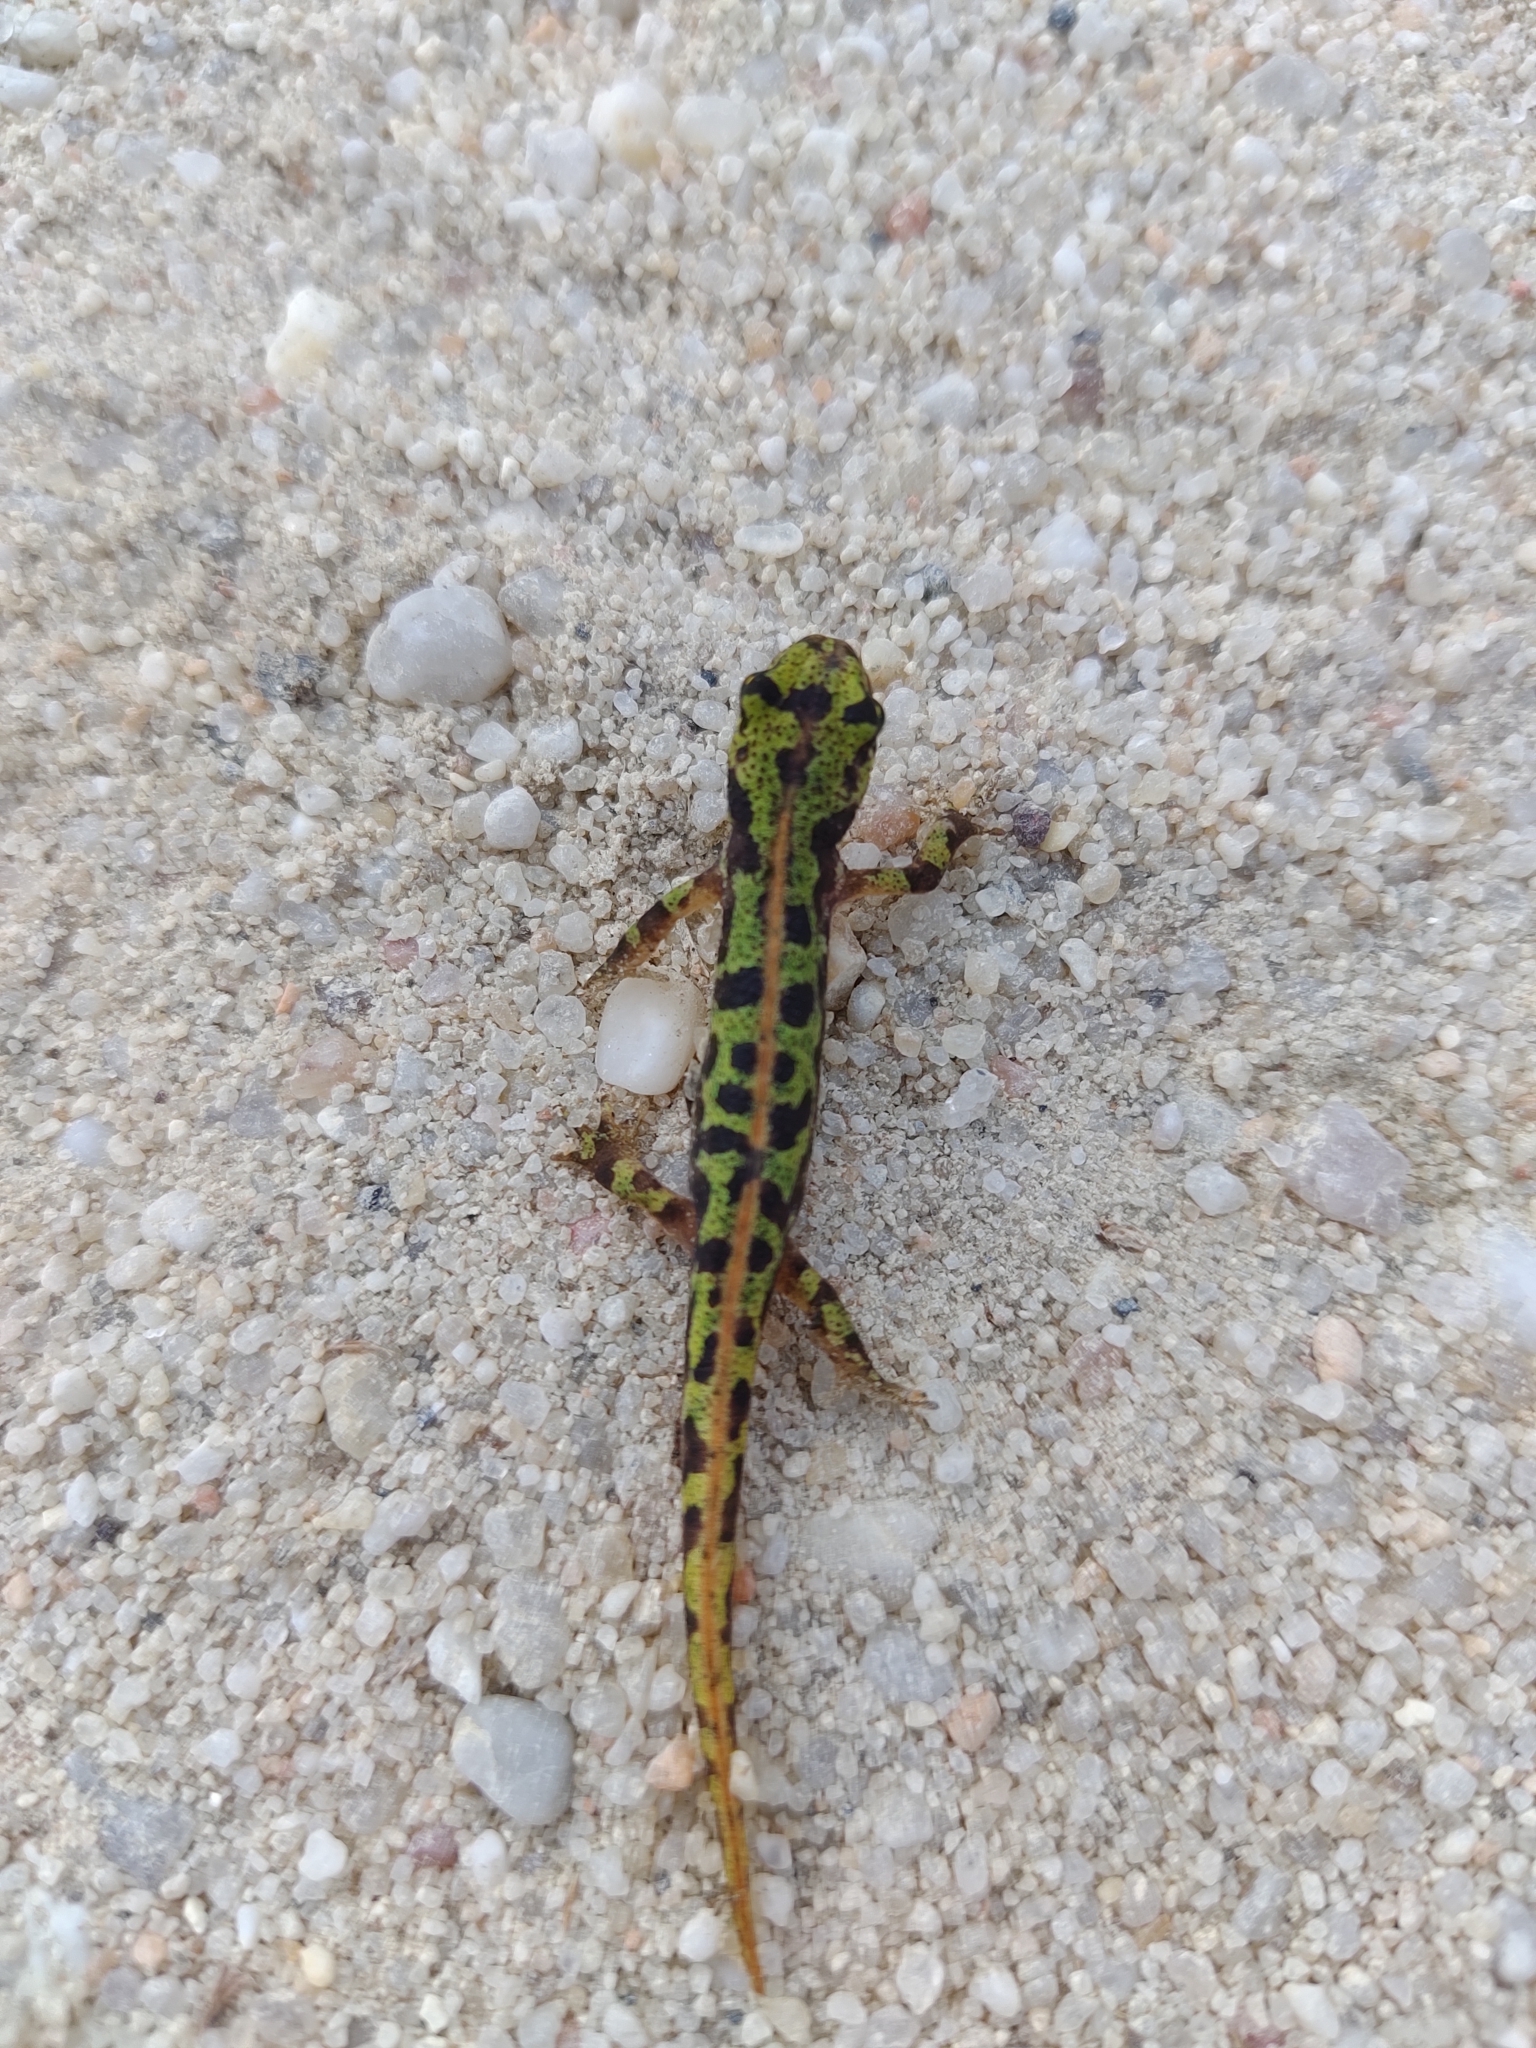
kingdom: Animalia
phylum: Chordata
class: Amphibia
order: Caudata
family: Salamandridae
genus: Triturus
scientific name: Triturus marmoratus
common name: Marbled newt
